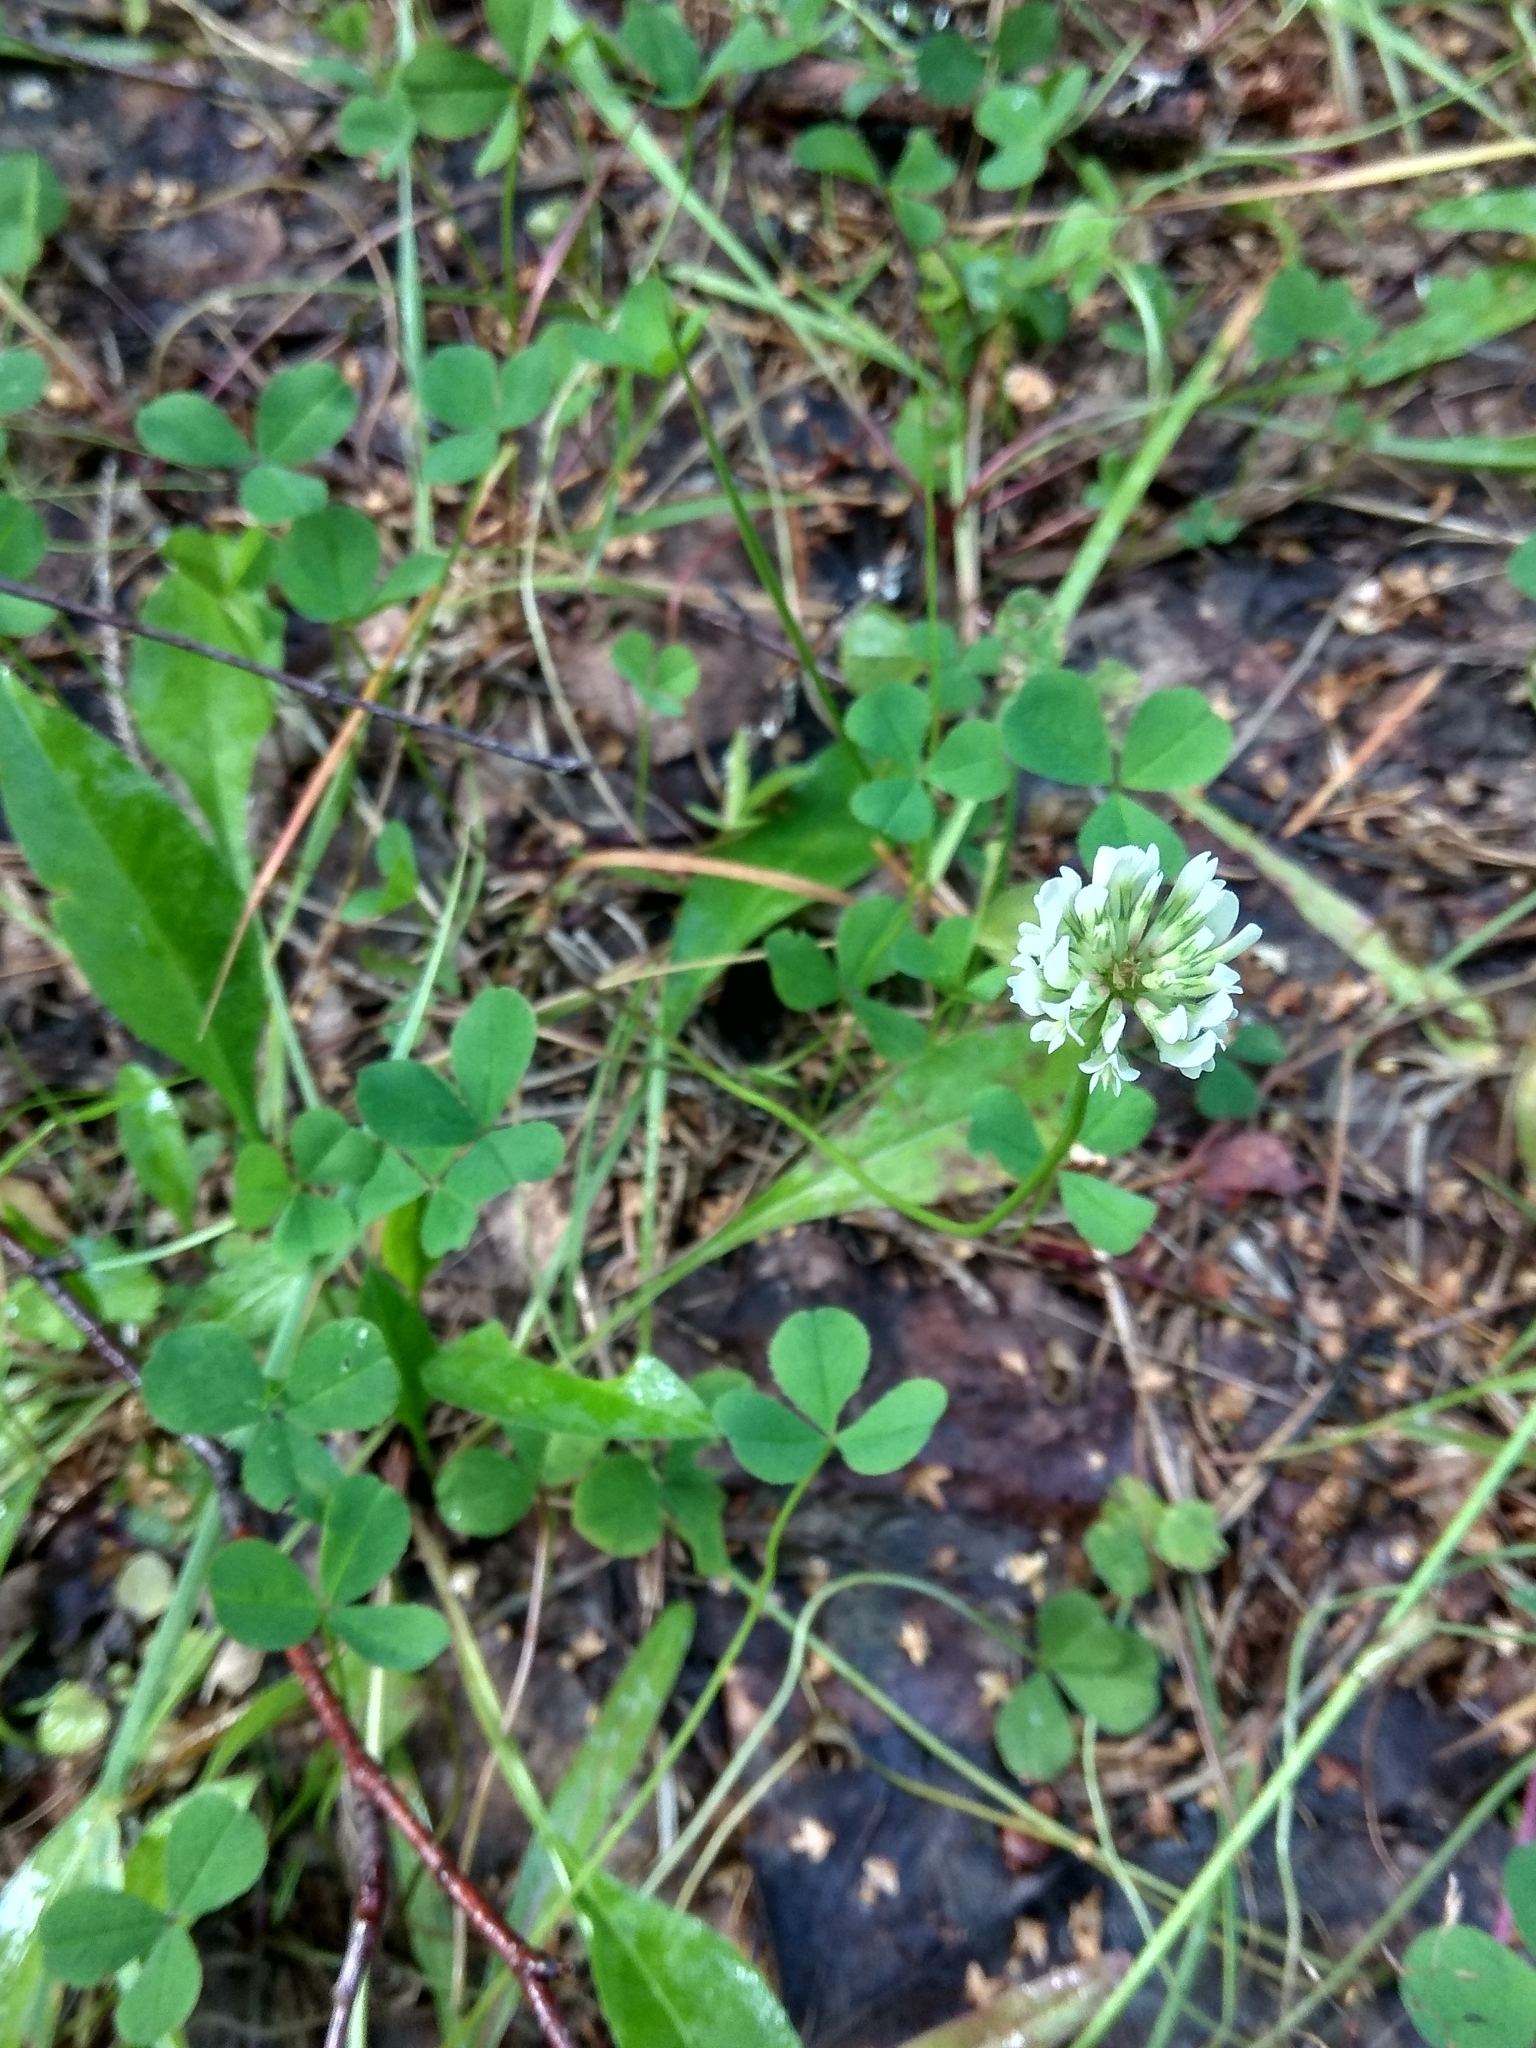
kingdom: Plantae
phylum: Tracheophyta
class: Magnoliopsida
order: Fabales
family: Fabaceae
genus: Trifolium
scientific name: Trifolium repens
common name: White clover
